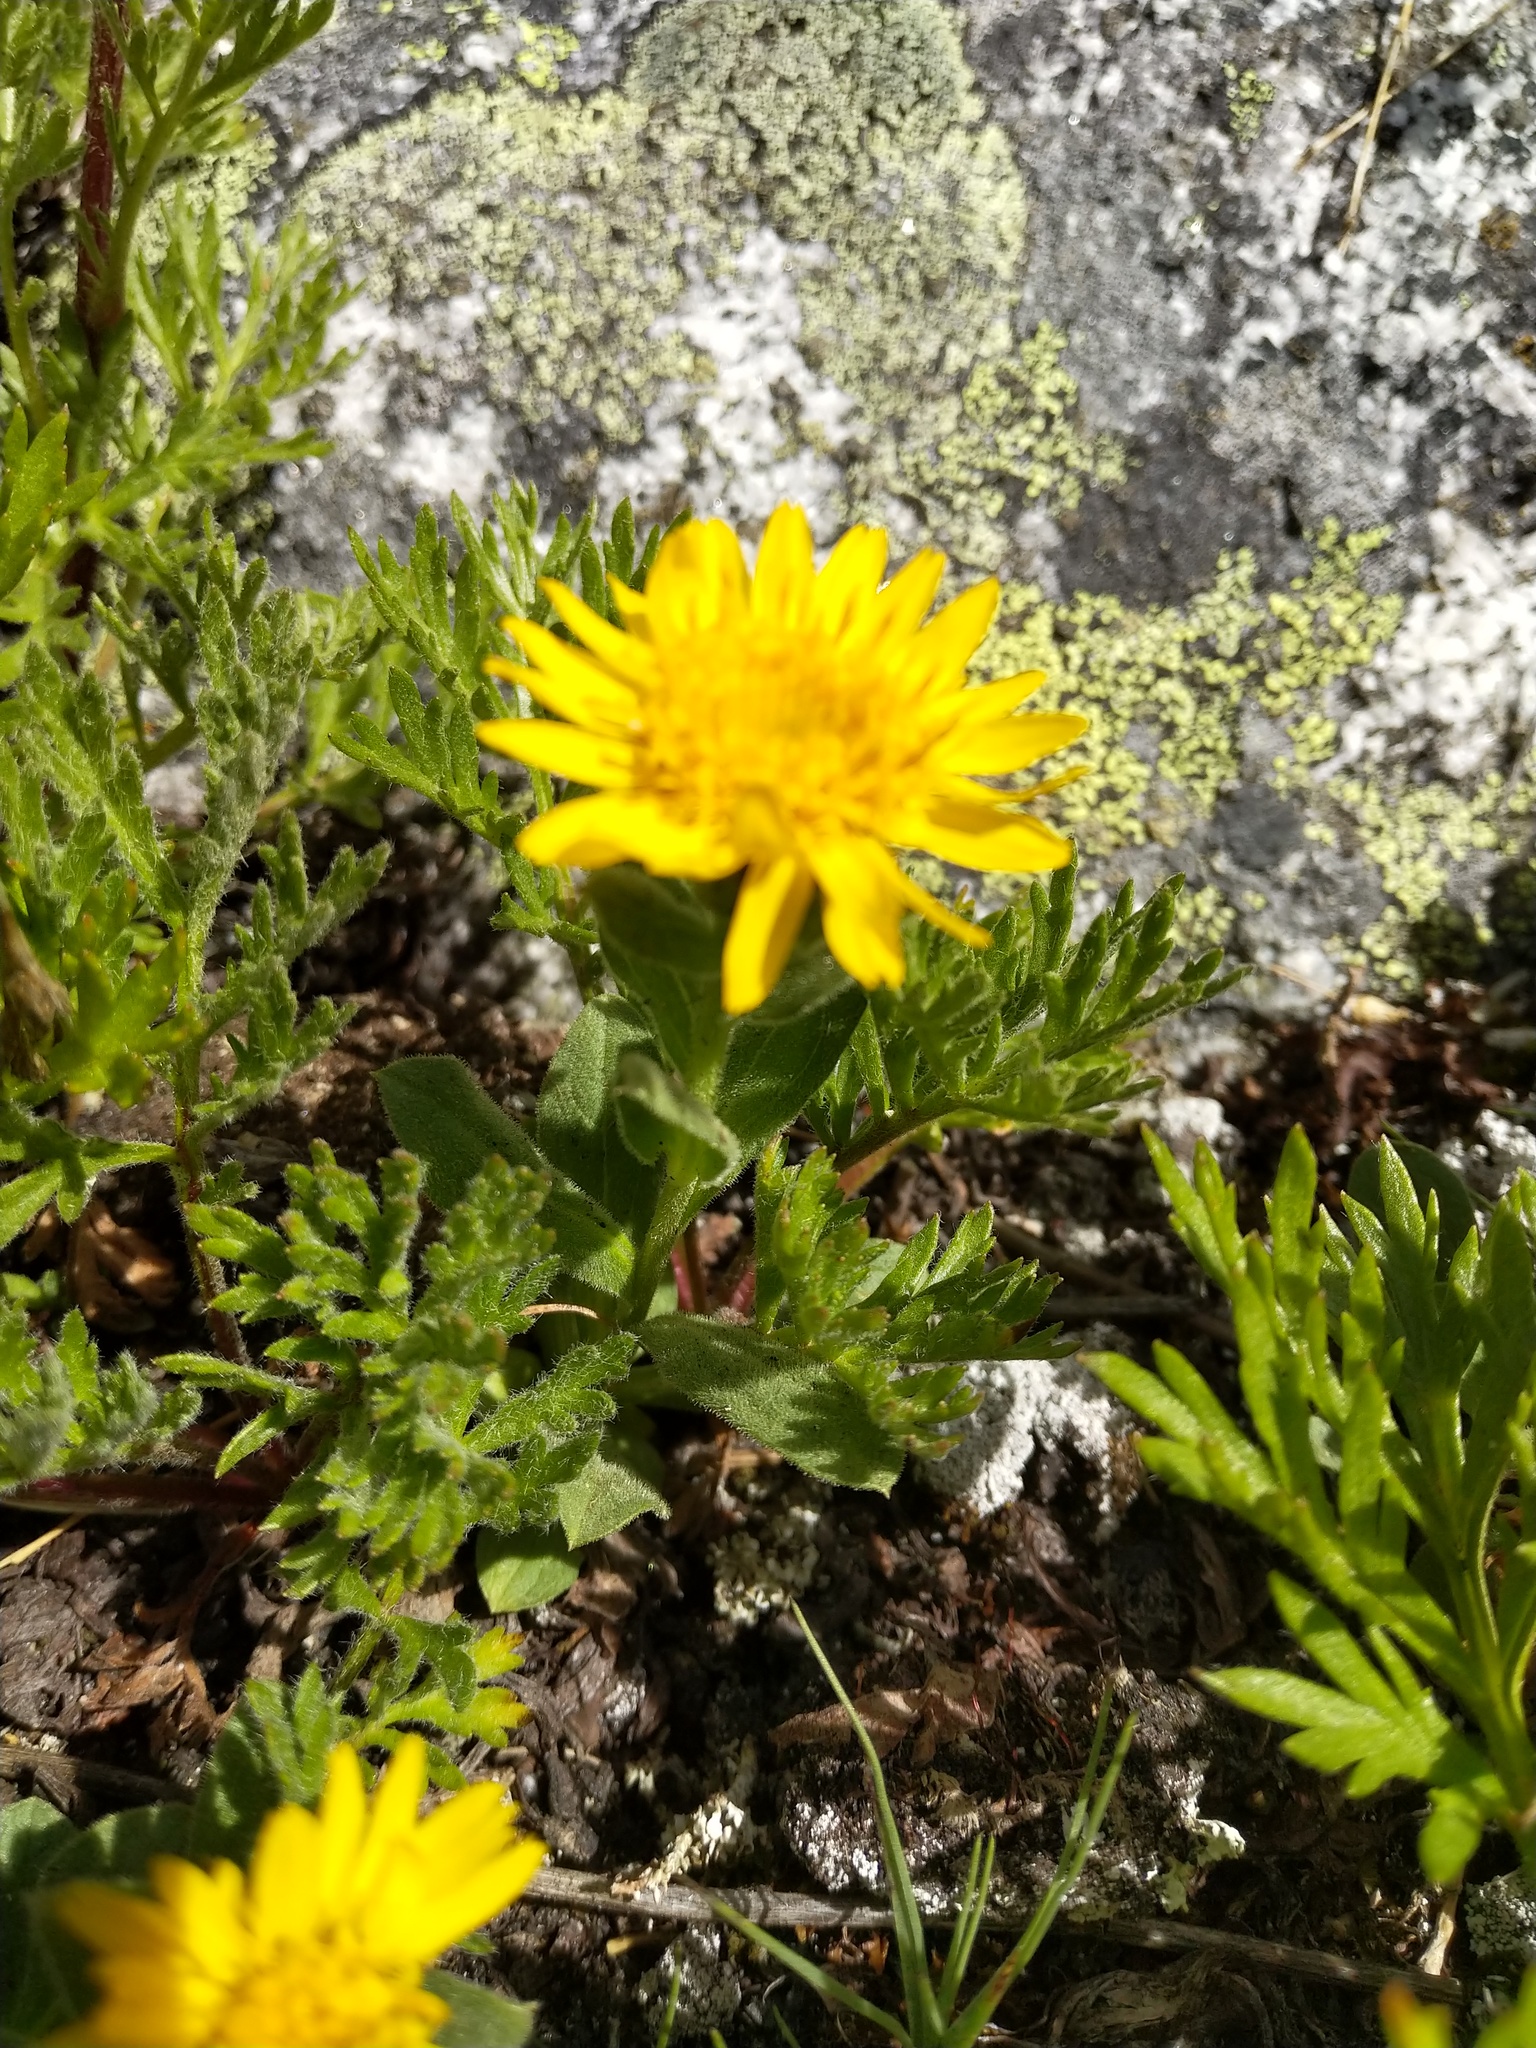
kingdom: Plantae
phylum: Tracheophyta
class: Magnoliopsida
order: Asterales
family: Asteraceae
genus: Tonestus
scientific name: Tonestus lyallii
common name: Lyall's goldenweed
